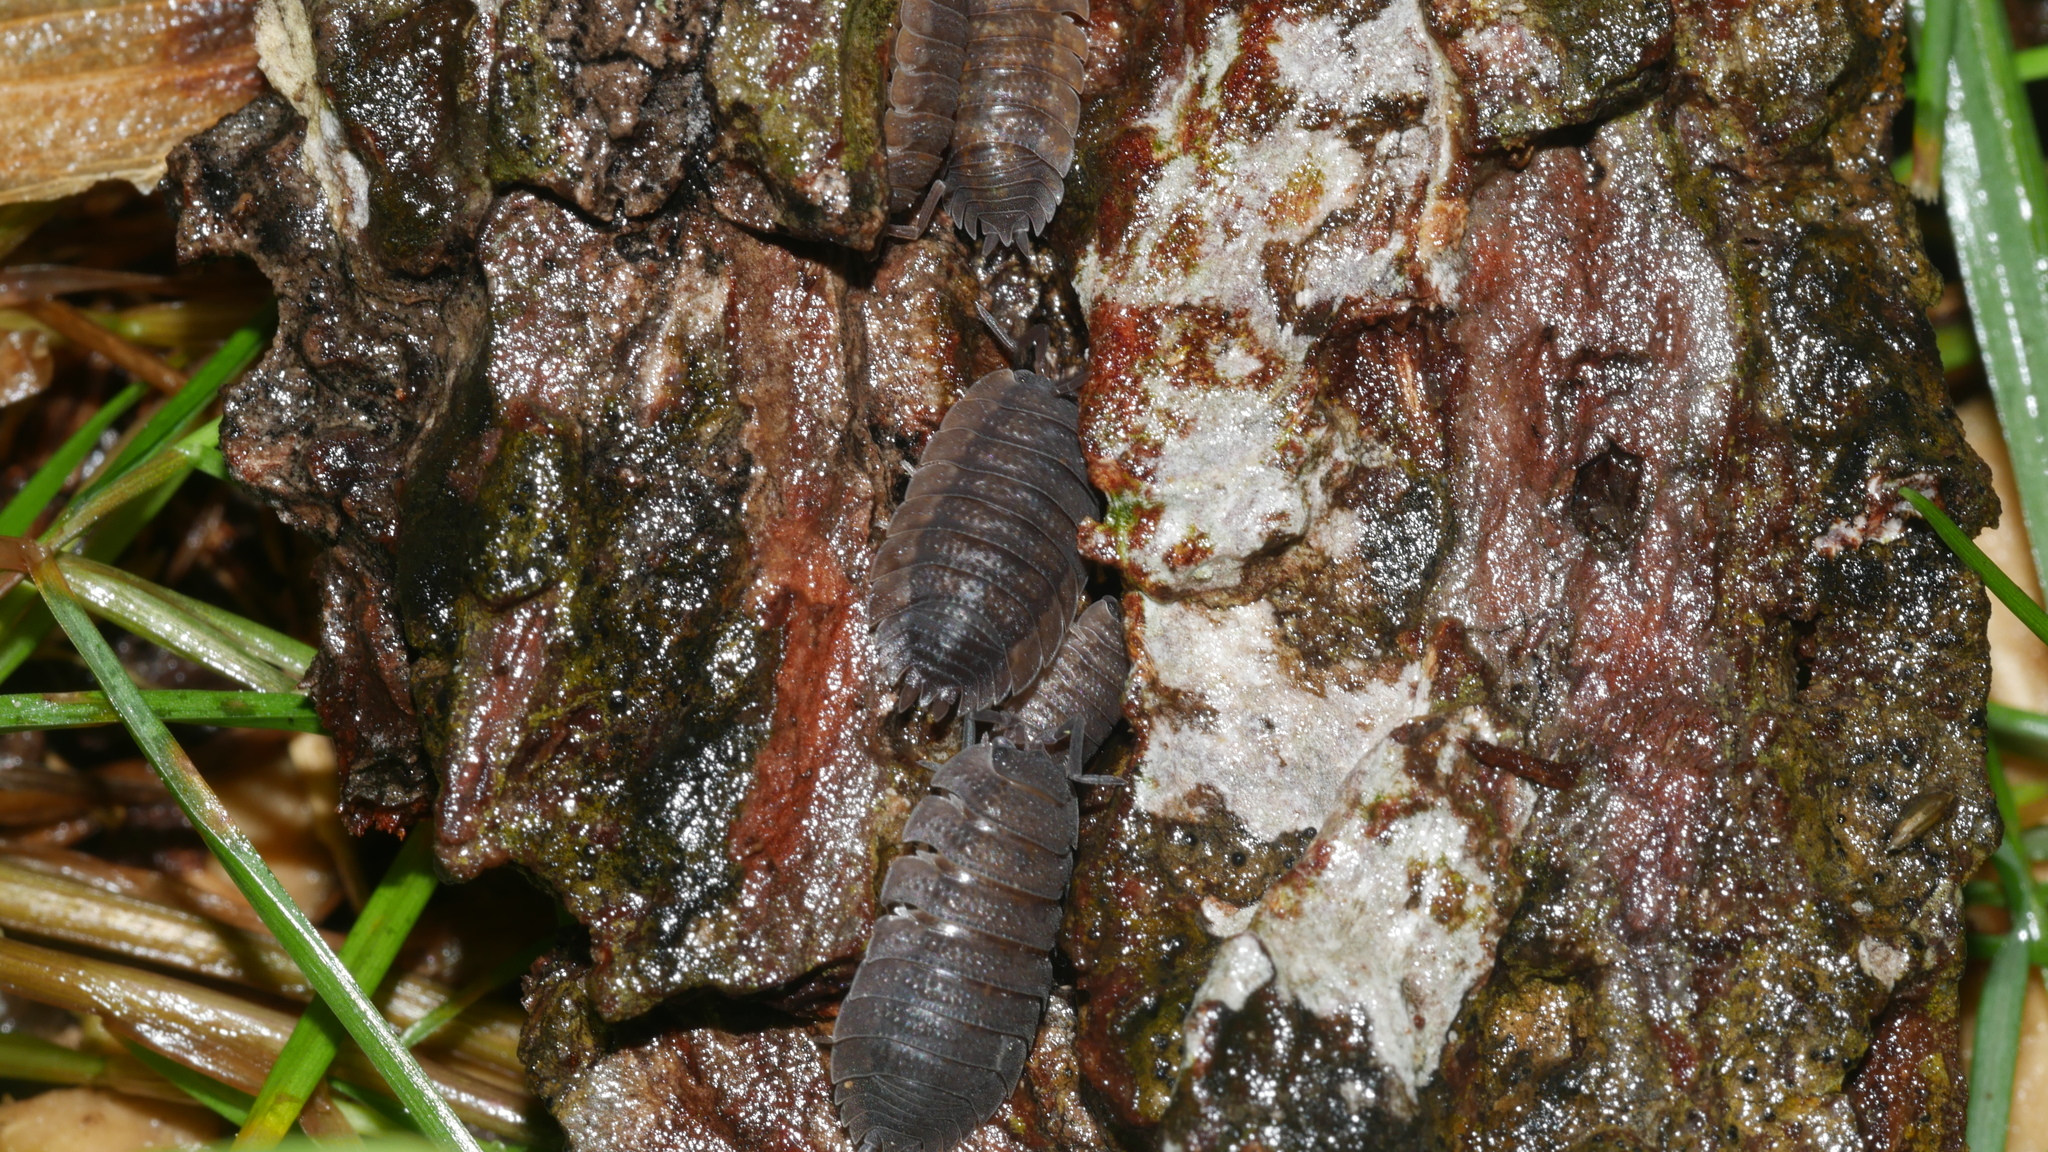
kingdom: Animalia
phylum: Arthropoda
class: Malacostraca
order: Isopoda
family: Porcellionidae
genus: Porcellio
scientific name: Porcellio scaber
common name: Common rough woodlouse
